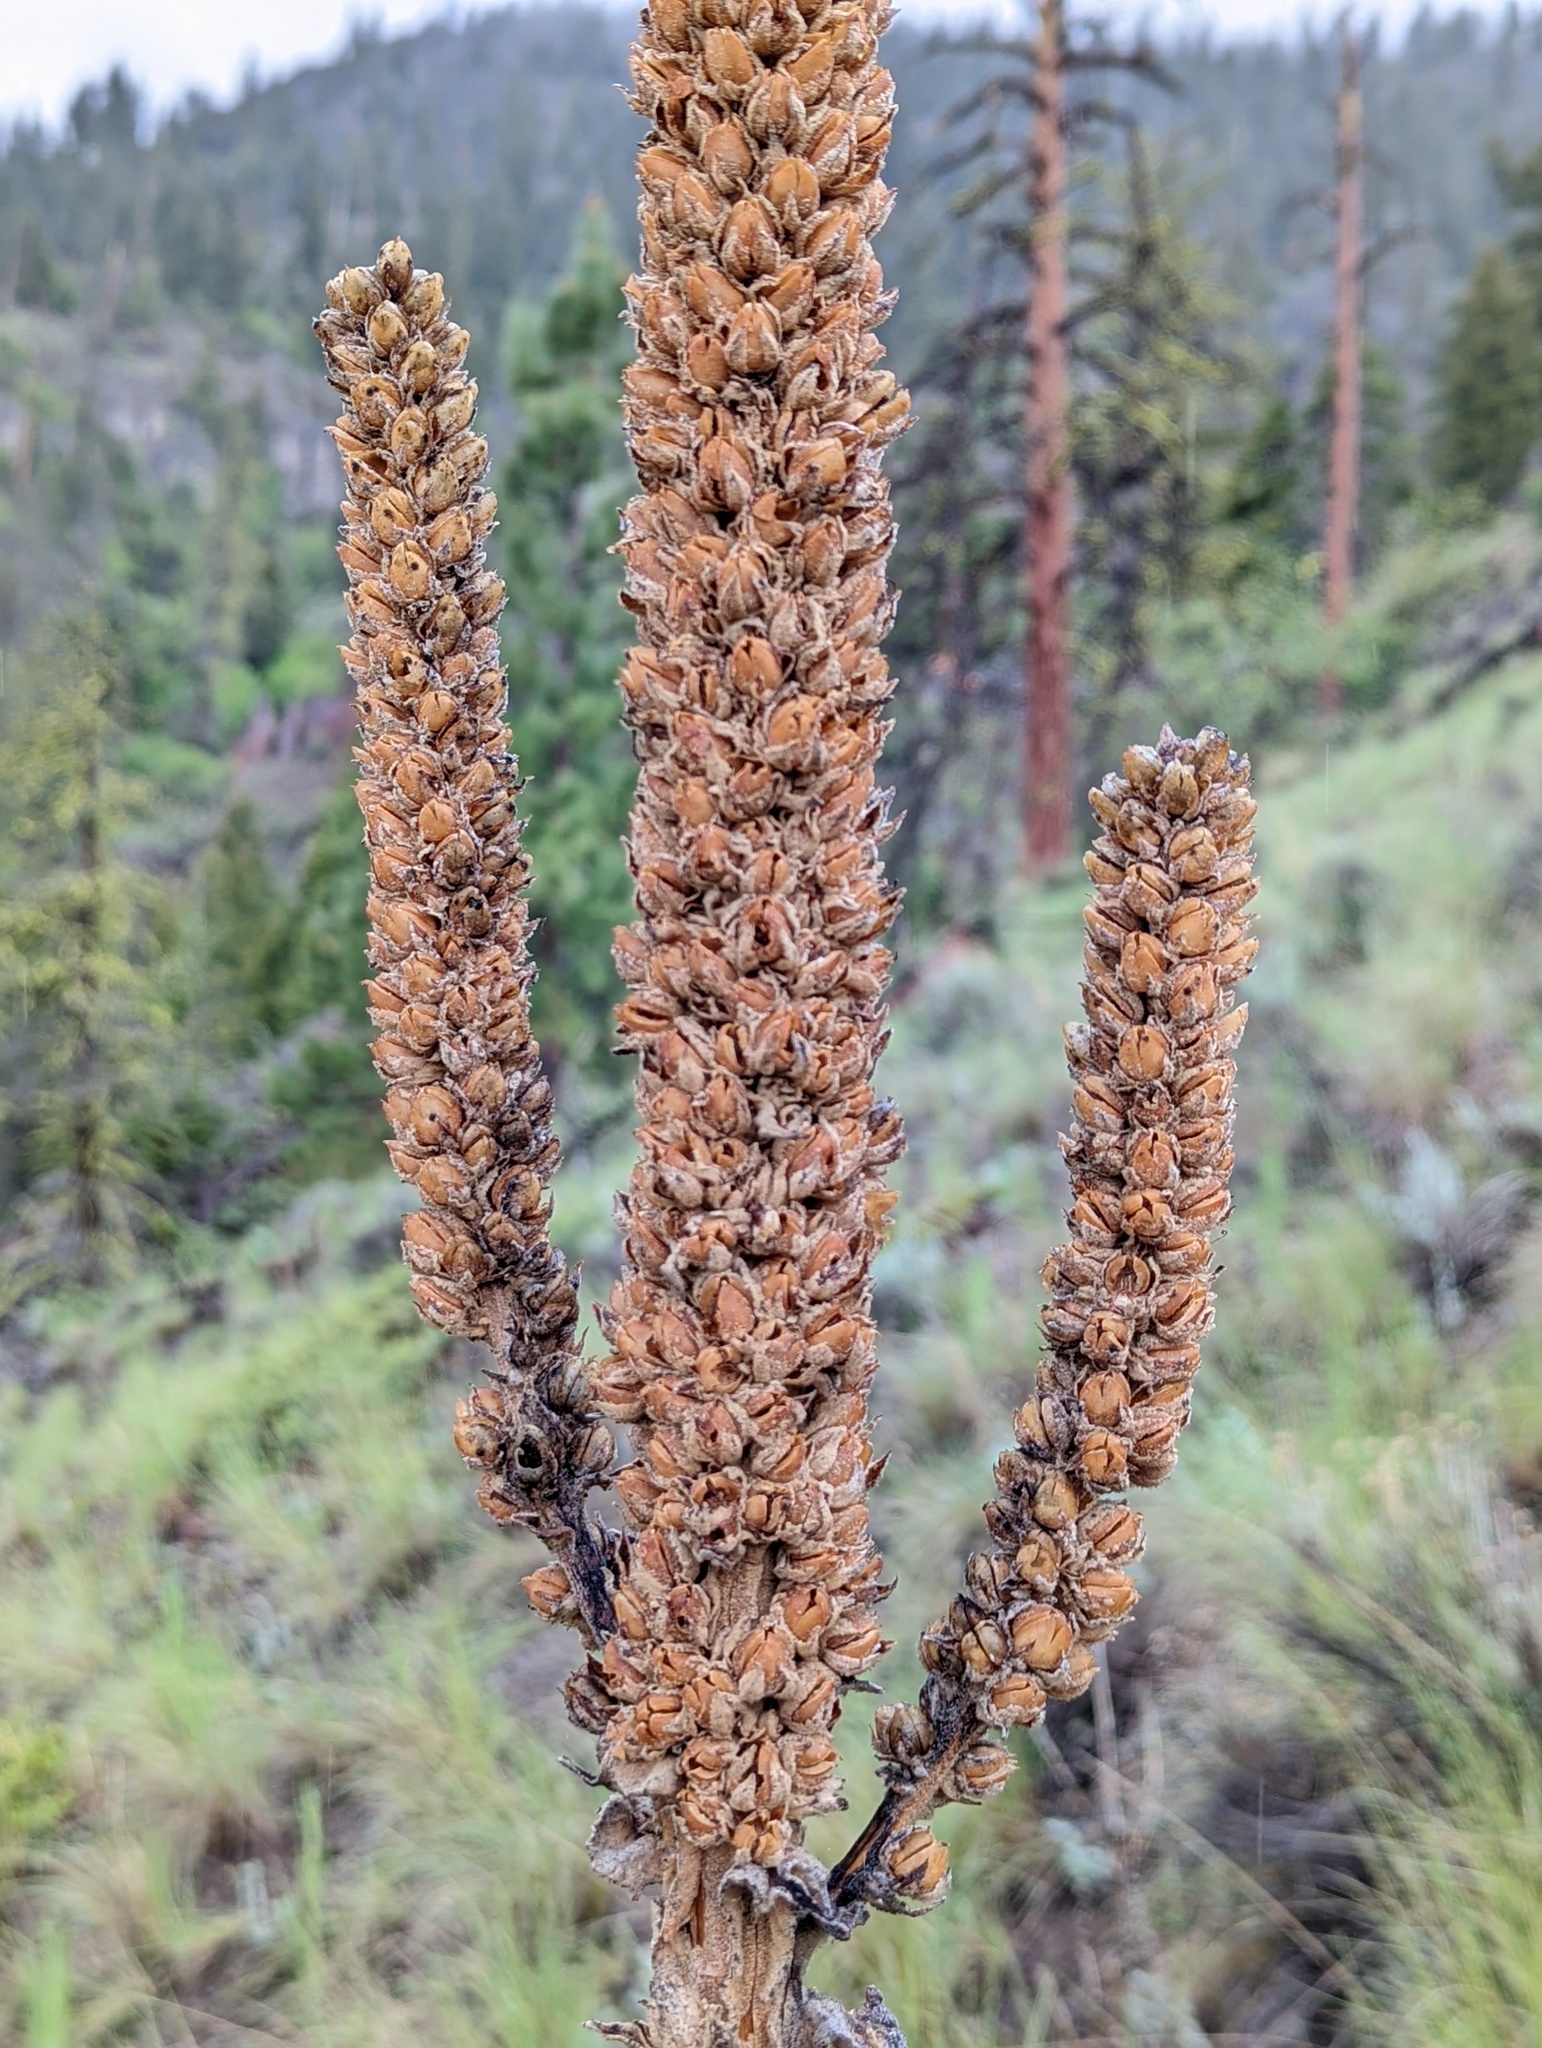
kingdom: Plantae
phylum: Tracheophyta
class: Magnoliopsida
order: Lamiales
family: Scrophulariaceae
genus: Verbascum
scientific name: Verbascum thapsus
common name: Common mullein
